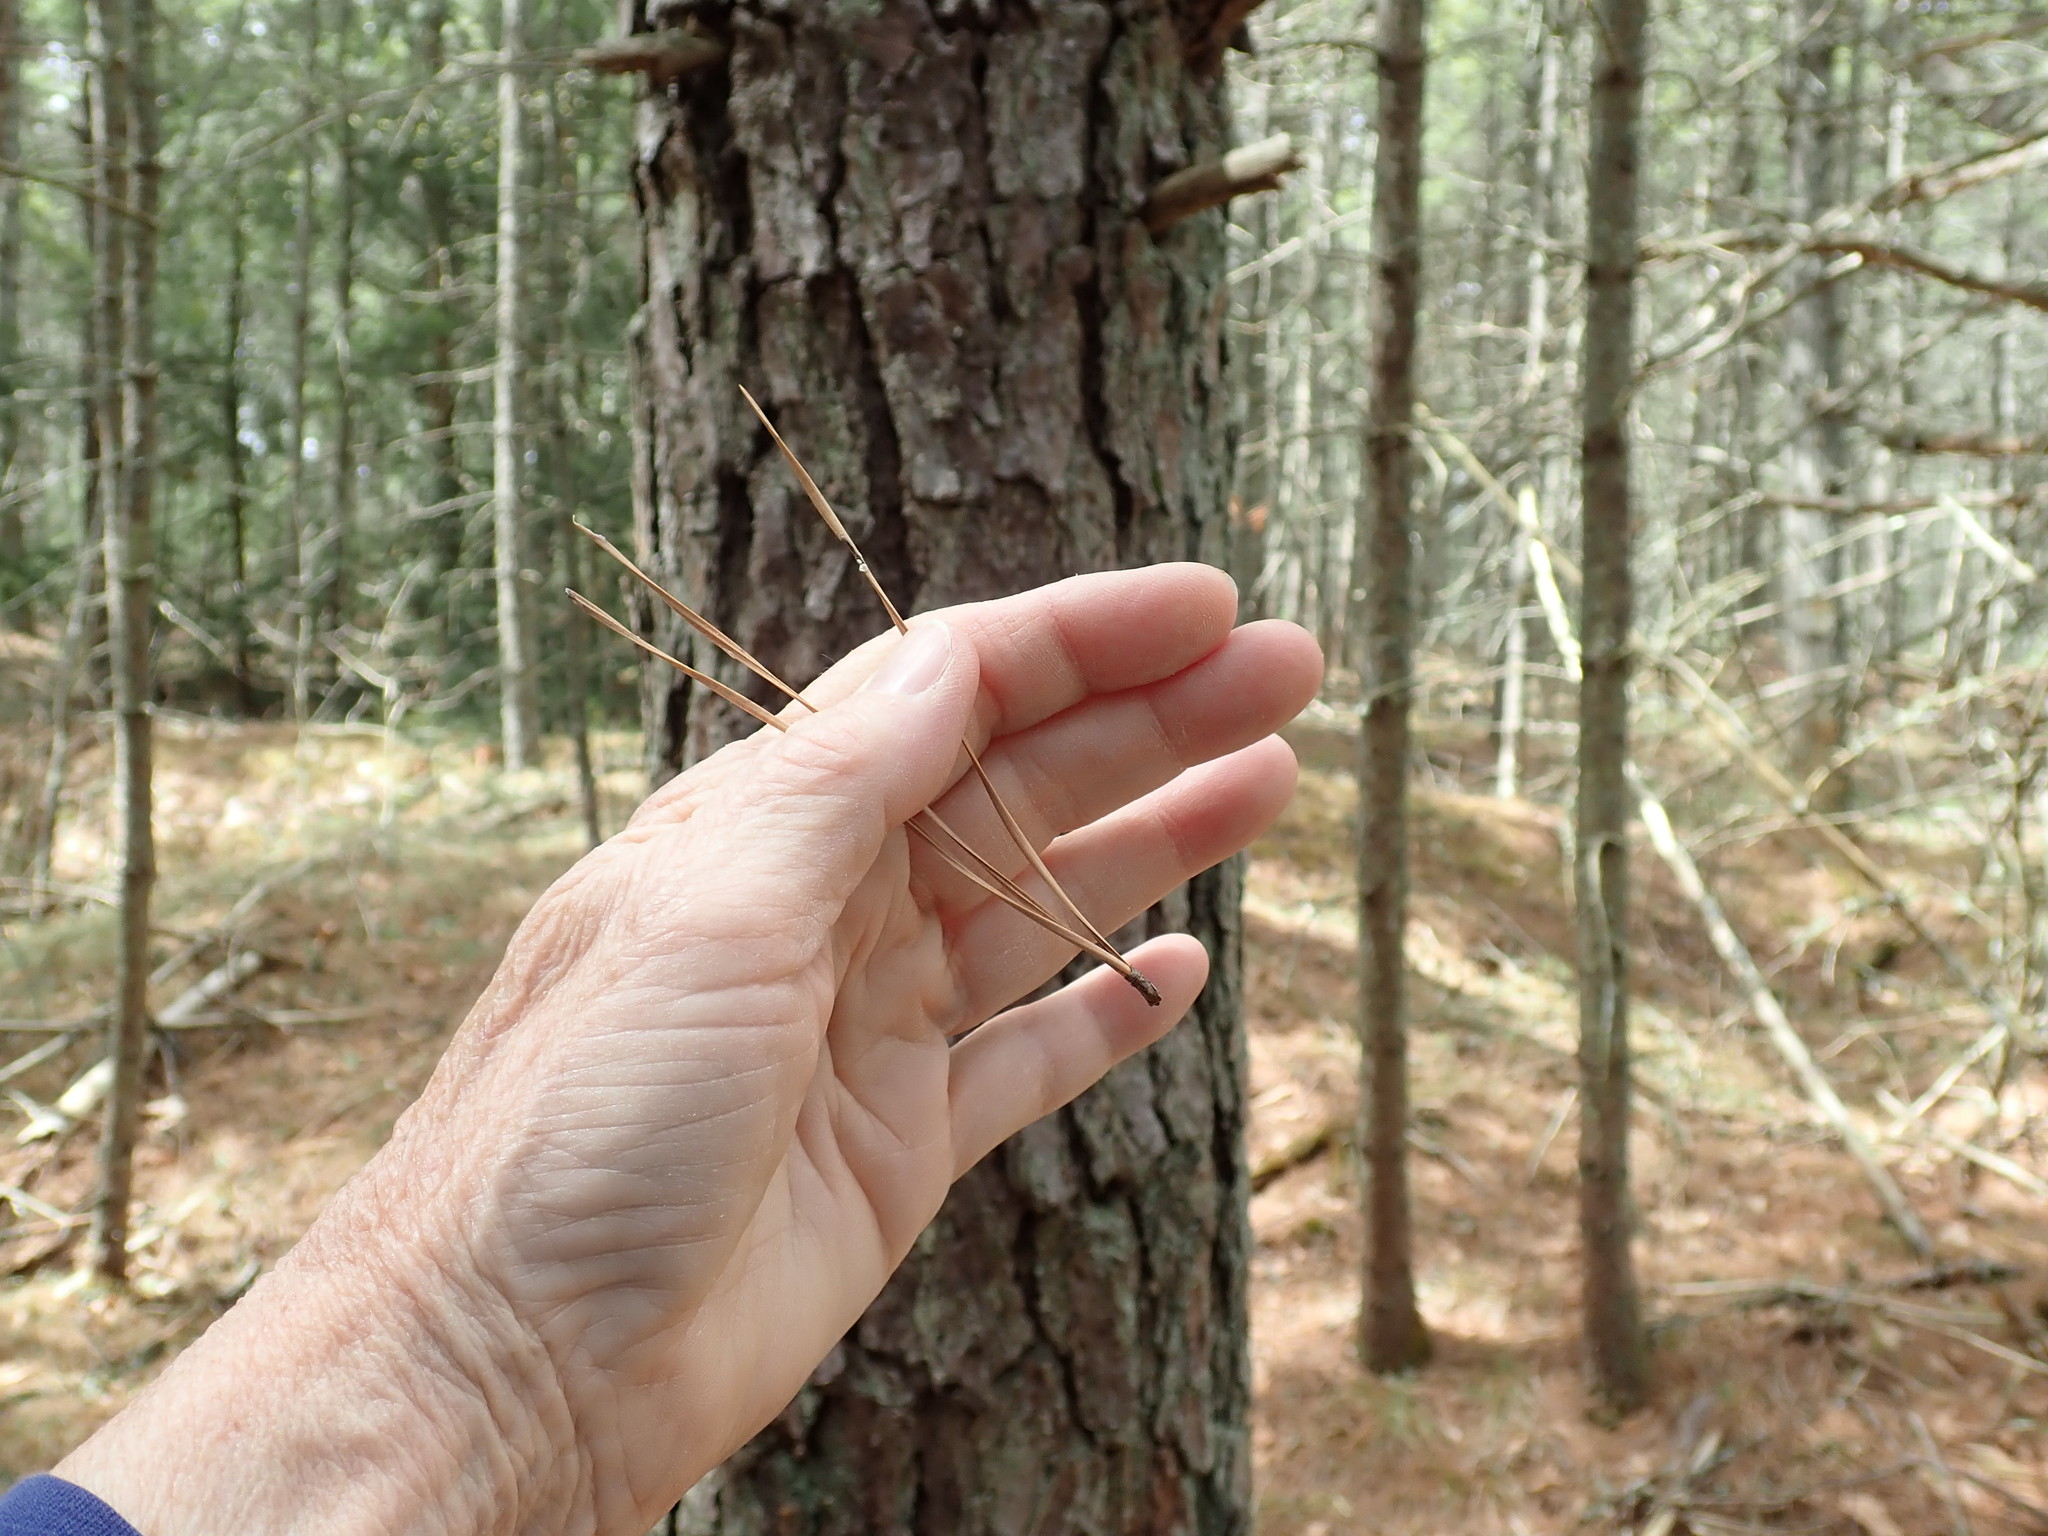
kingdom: Plantae
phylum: Tracheophyta
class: Pinopsida
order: Pinales
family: Pinaceae
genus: Pinus
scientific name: Pinus rigida
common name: Pitch pine
